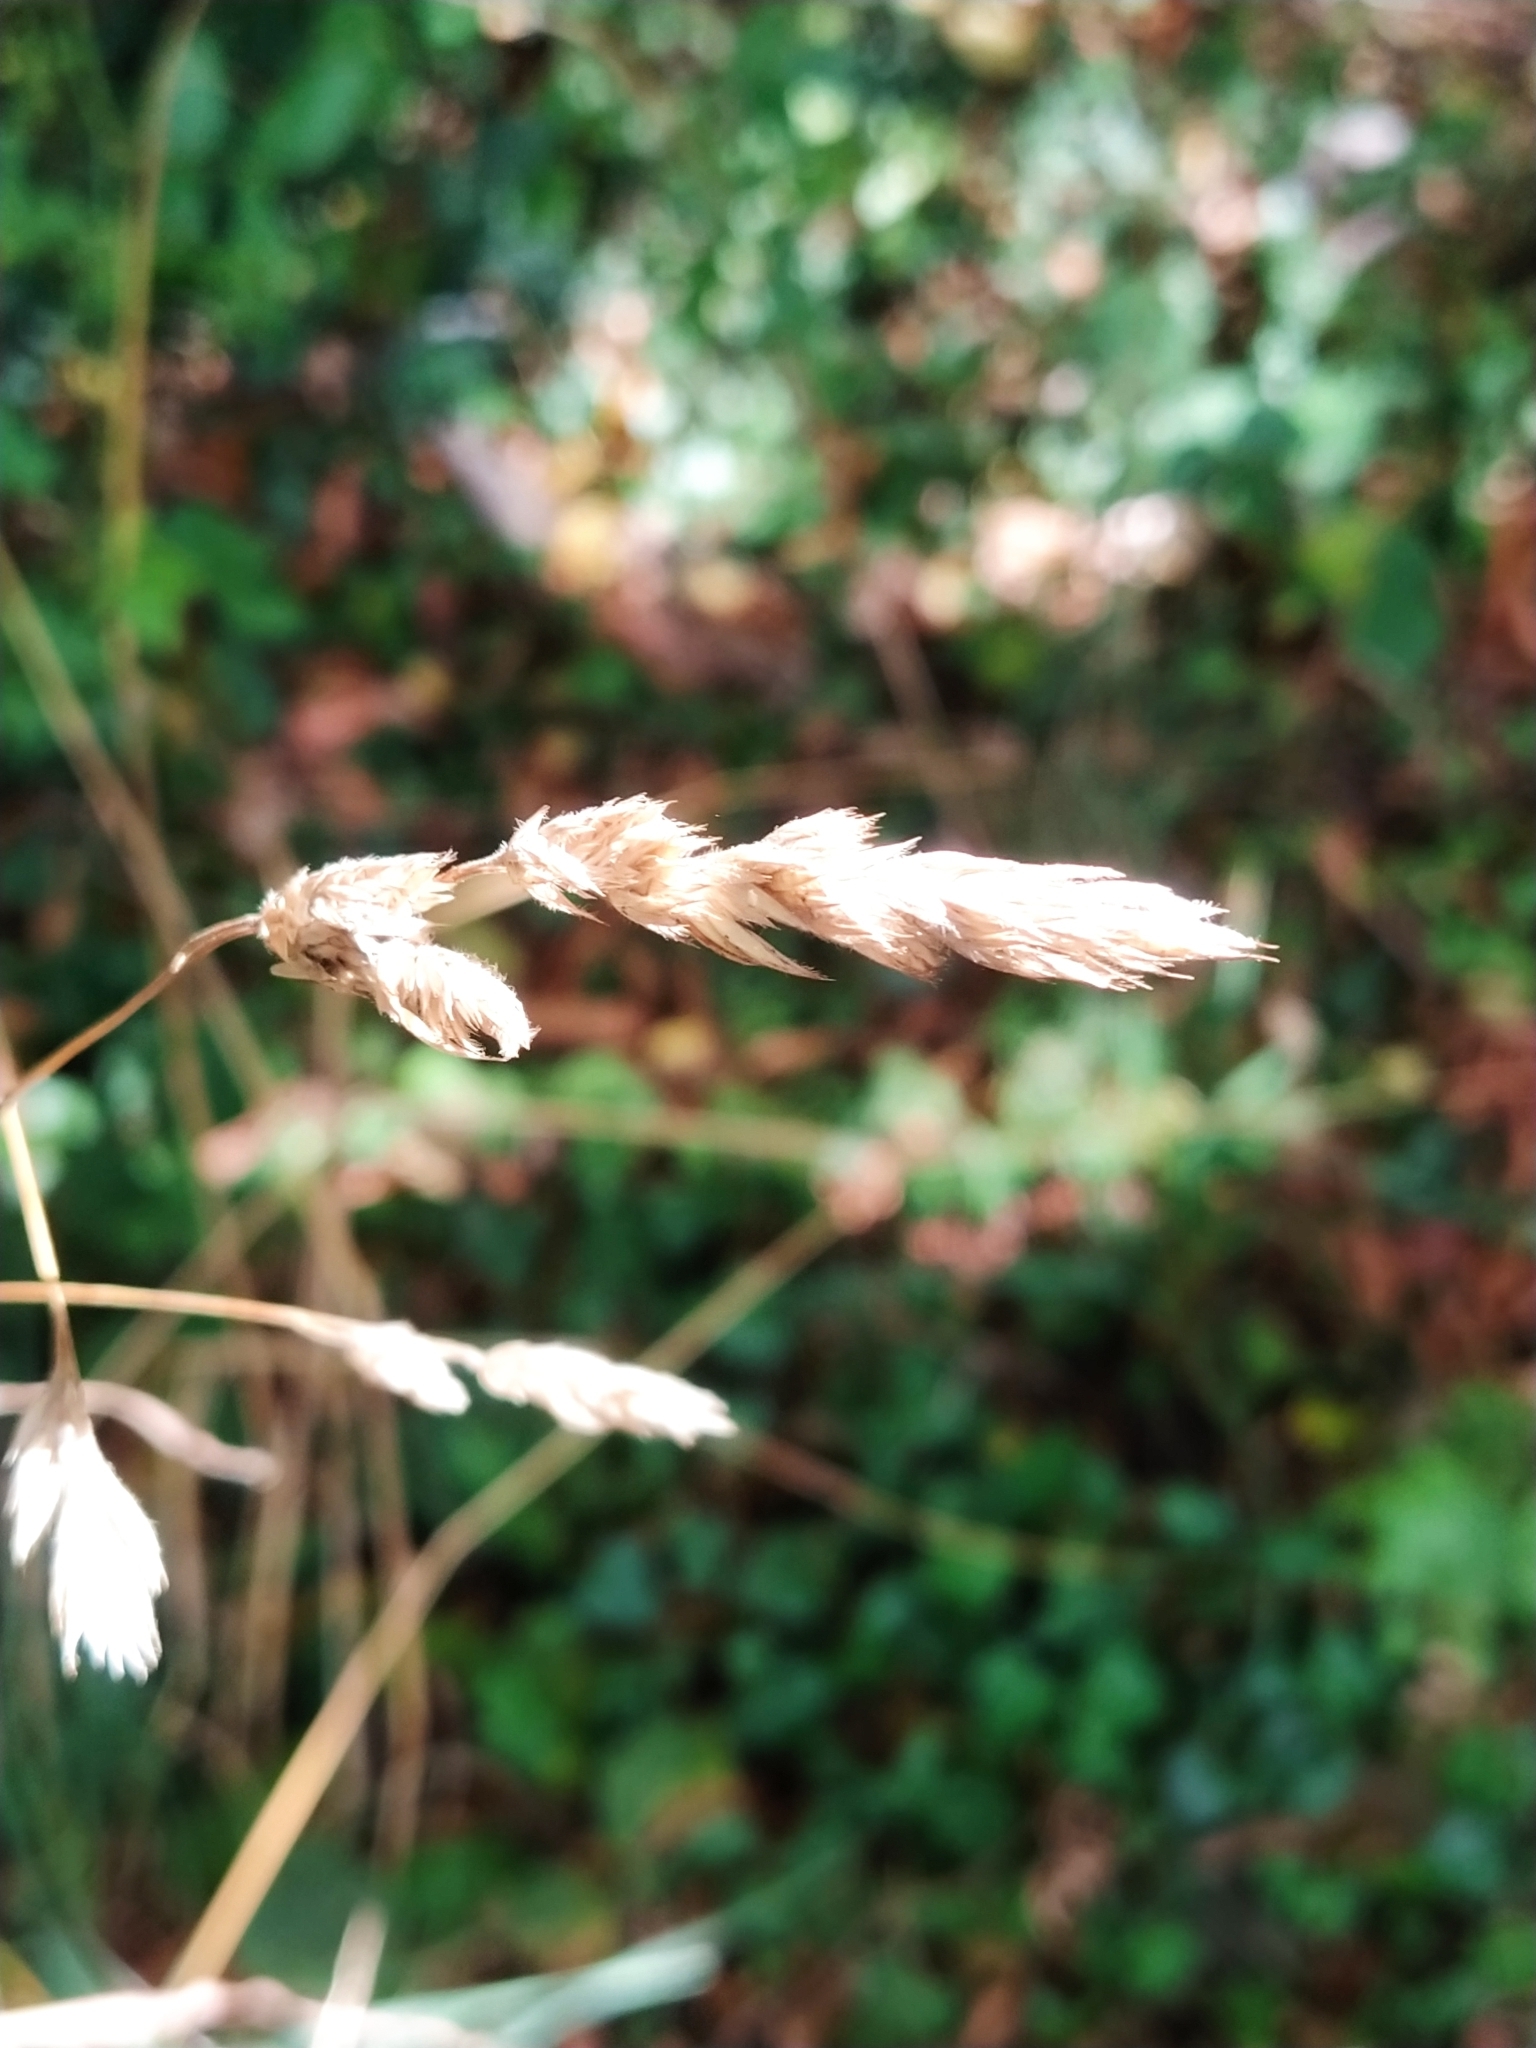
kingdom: Plantae
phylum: Tracheophyta
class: Liliopsida
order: Poales
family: Poaceae
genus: Dactylis
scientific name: Dactylis glomerata
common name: Orchardgrass
